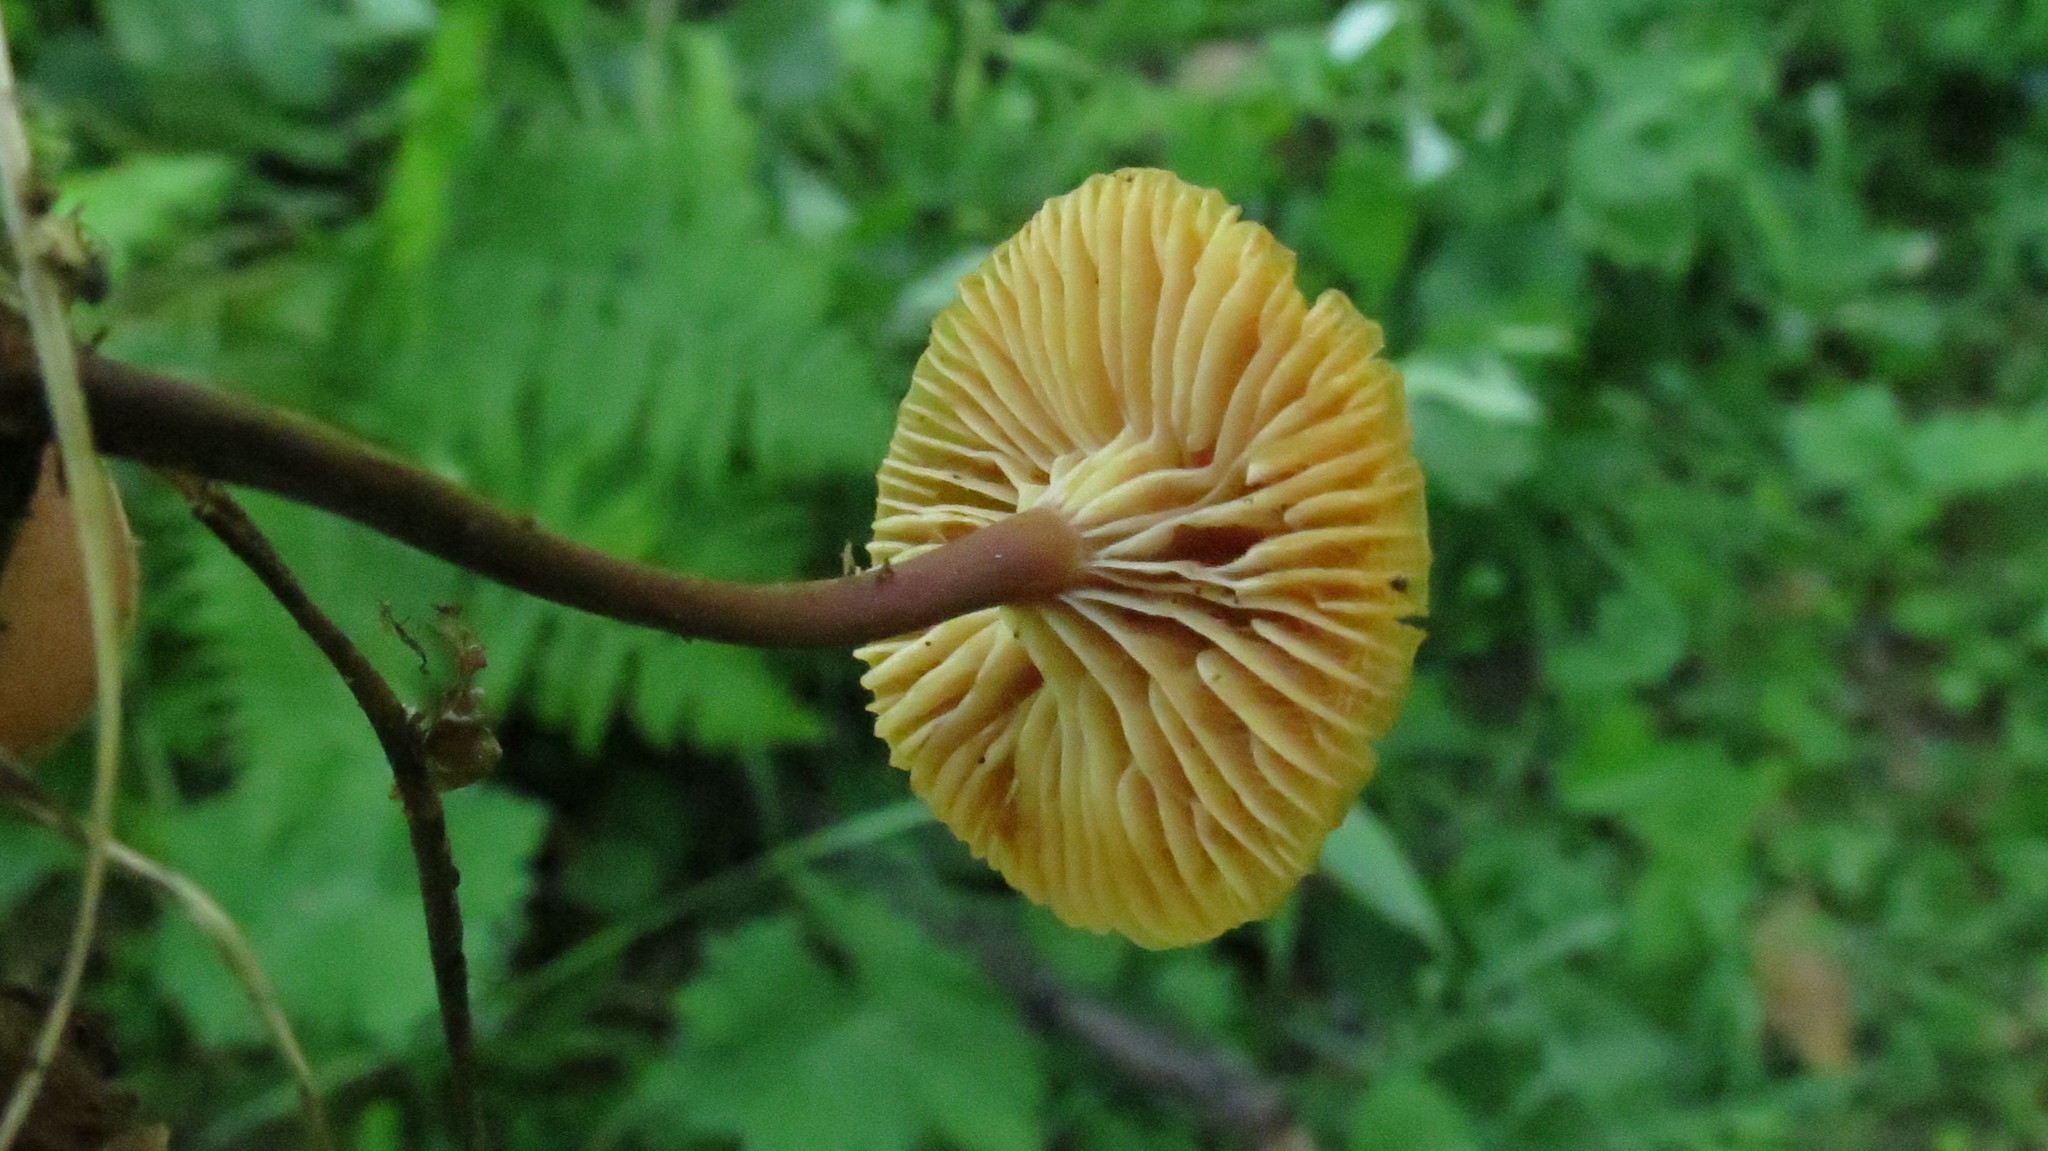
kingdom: Fungi
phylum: Basidiomycota
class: Agaricomycetes
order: Agaricales
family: Mycenaceae
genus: Xeromphalina
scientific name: Xeromphalina campanella
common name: Pinewood gingertail
